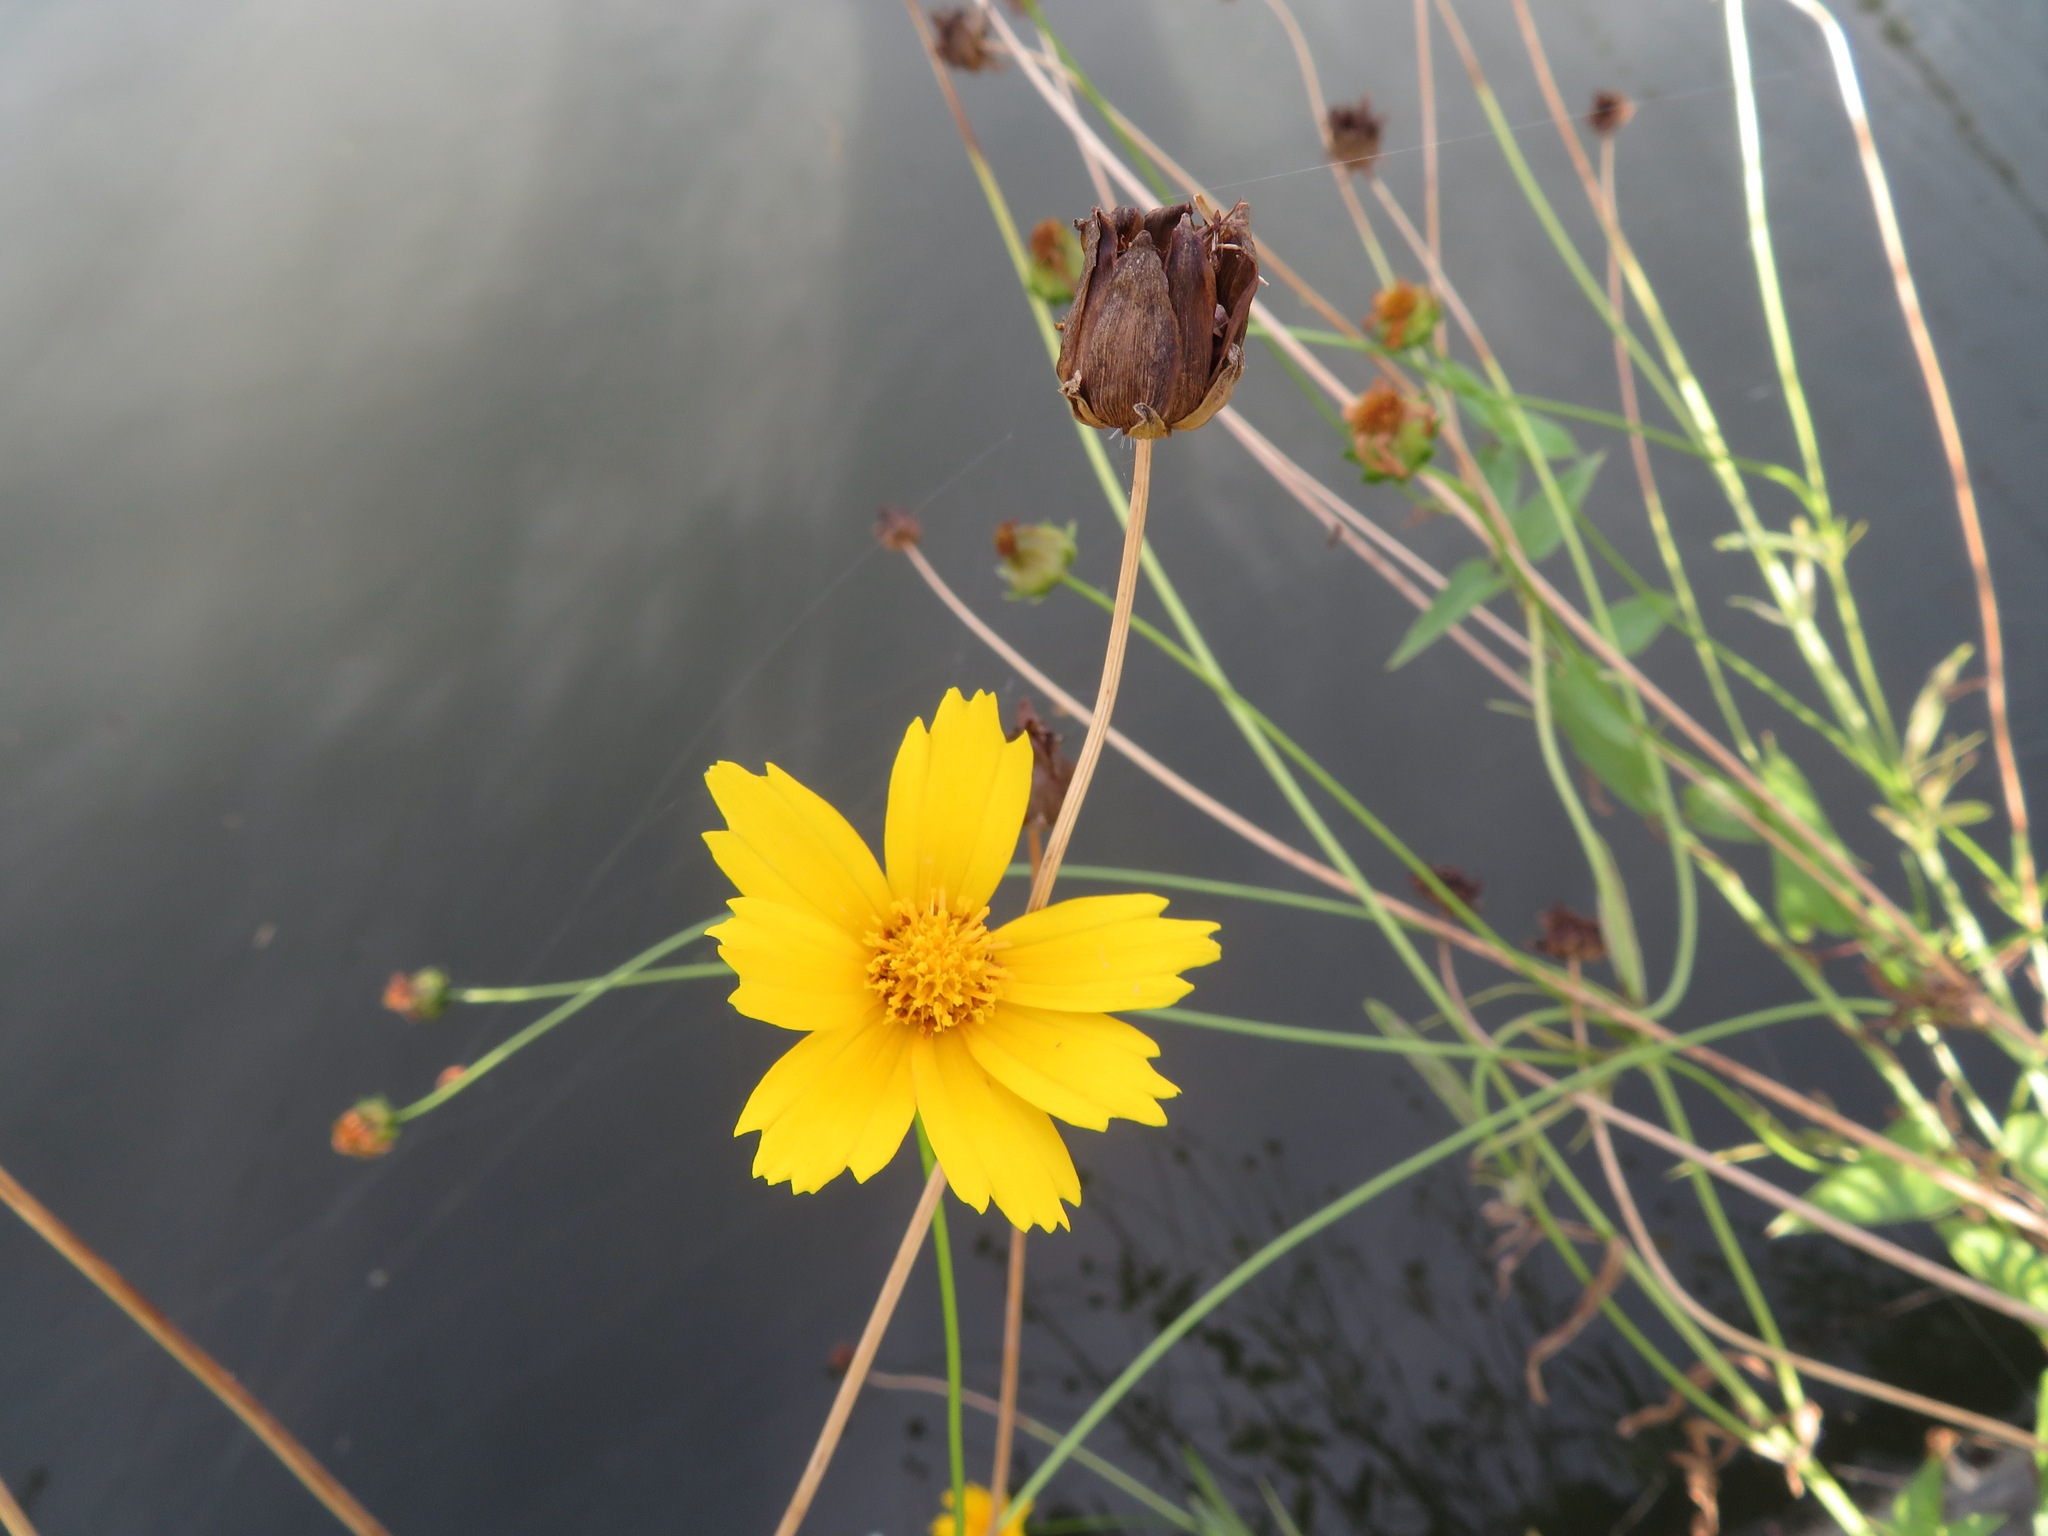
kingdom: Plantae
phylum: Tracheophyta
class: Magnoliopsida
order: Asterales
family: Asteraceae
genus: Coreopsis
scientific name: Coreopsis lanceolata
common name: Garden coreopsis
